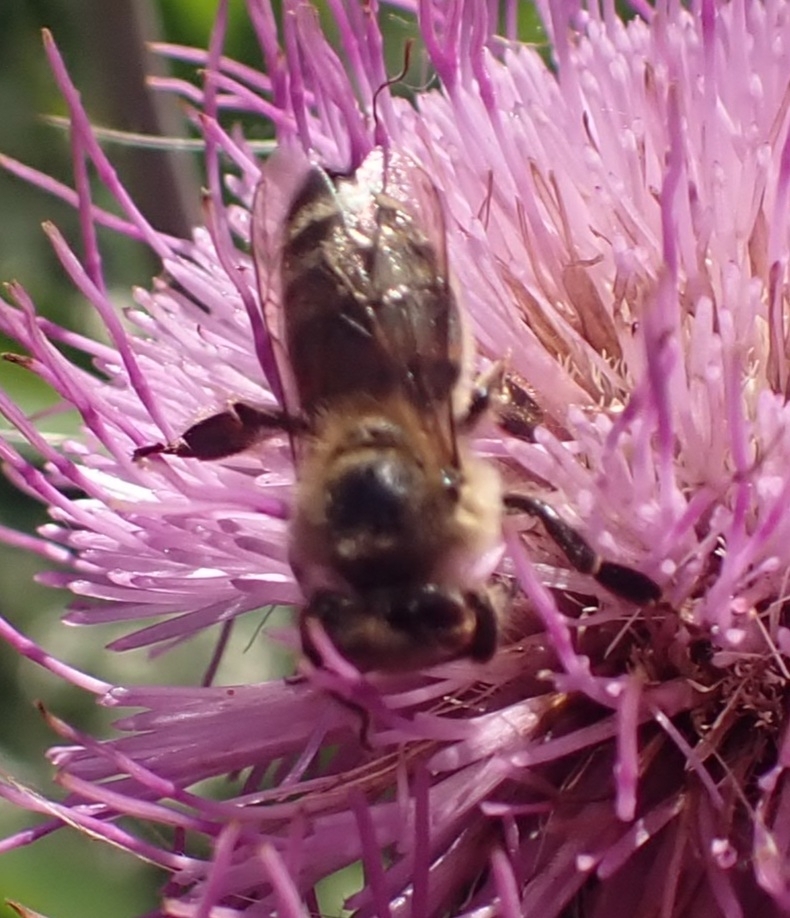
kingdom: Animalia
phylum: Arthropoda
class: Insecta
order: Hymenoptera
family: Apidae
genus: Apis
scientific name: Apis mellifera
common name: Honey bee
